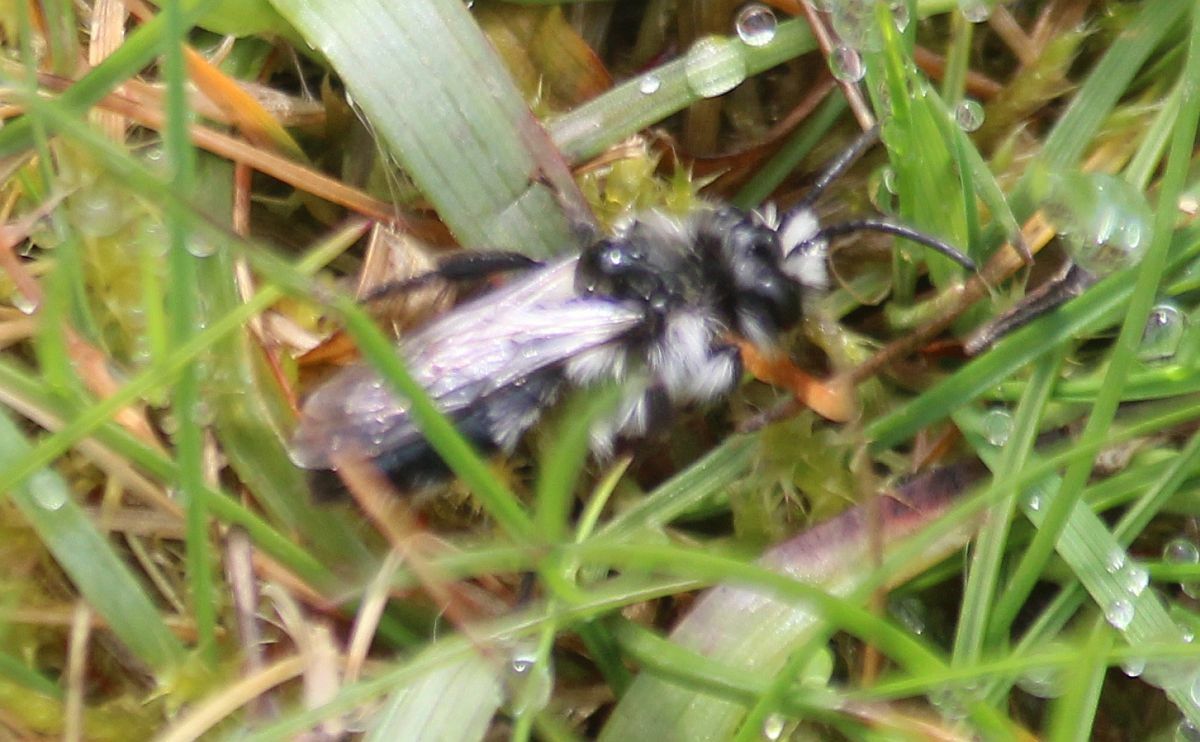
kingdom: Animalia
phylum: Arthropoda
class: Insecta
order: Hymenoptera
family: Andrenidae
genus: Andrena
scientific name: Andrena cineraria
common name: Ashy mining bee
